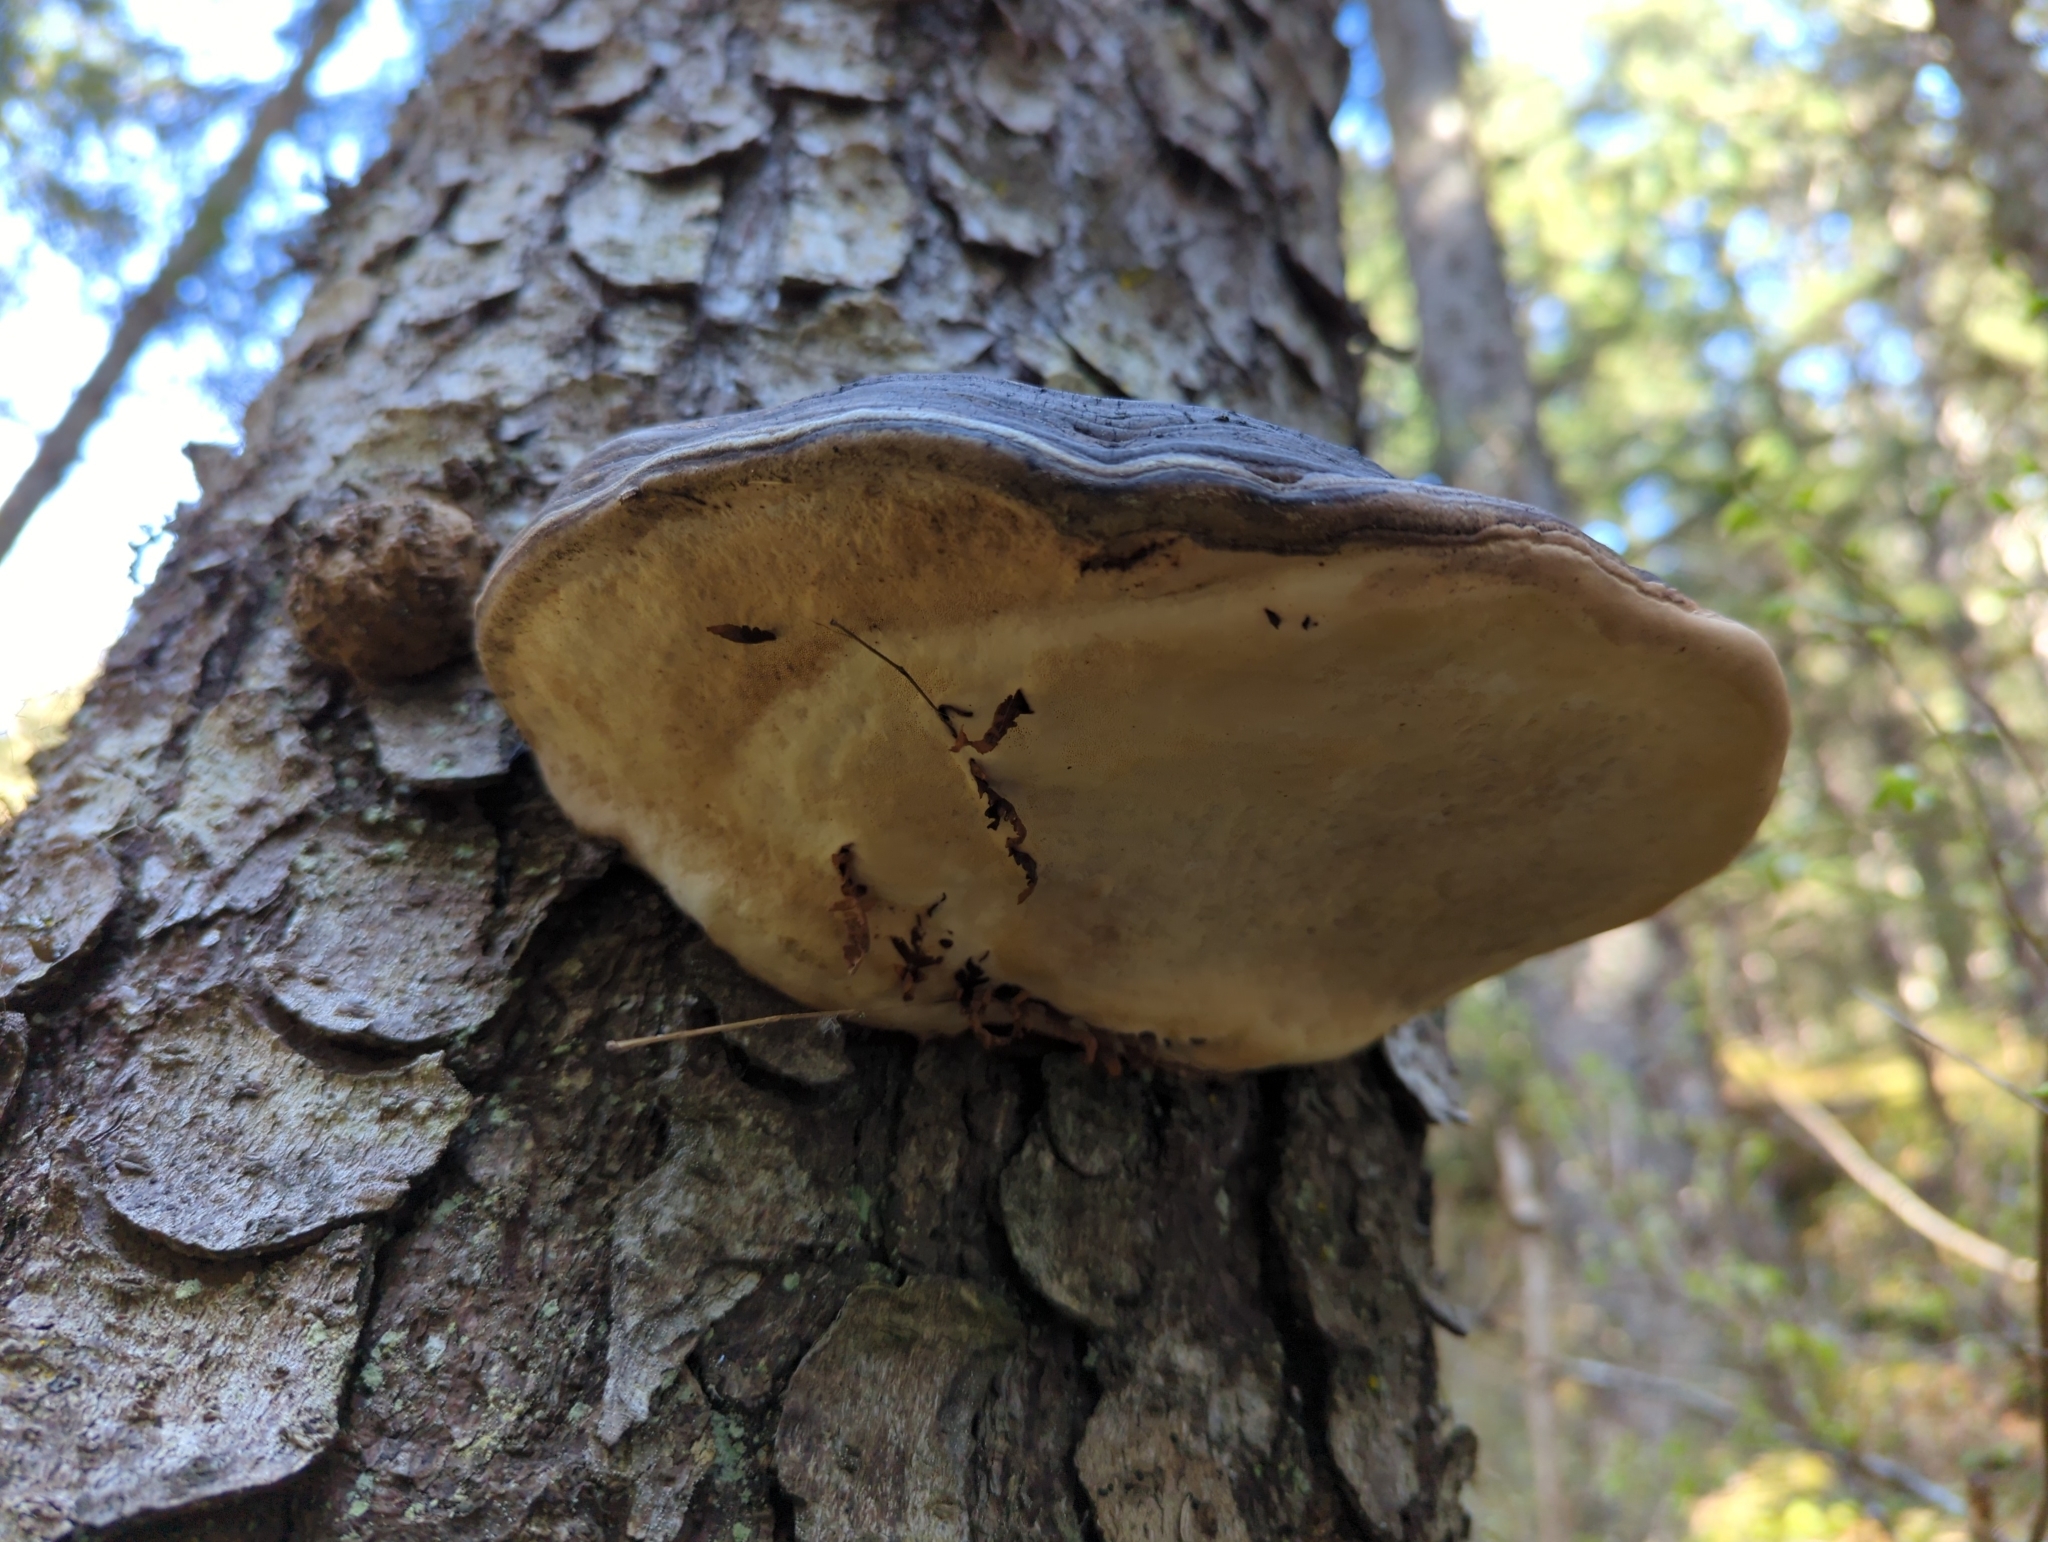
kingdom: Fungi
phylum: Basidiomycota
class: Agaricomycetes
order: Polyporales
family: Fomitopsidaceae
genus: Fomitopsis
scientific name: Fomitopsis ochracea
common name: American brown fomitopsis
